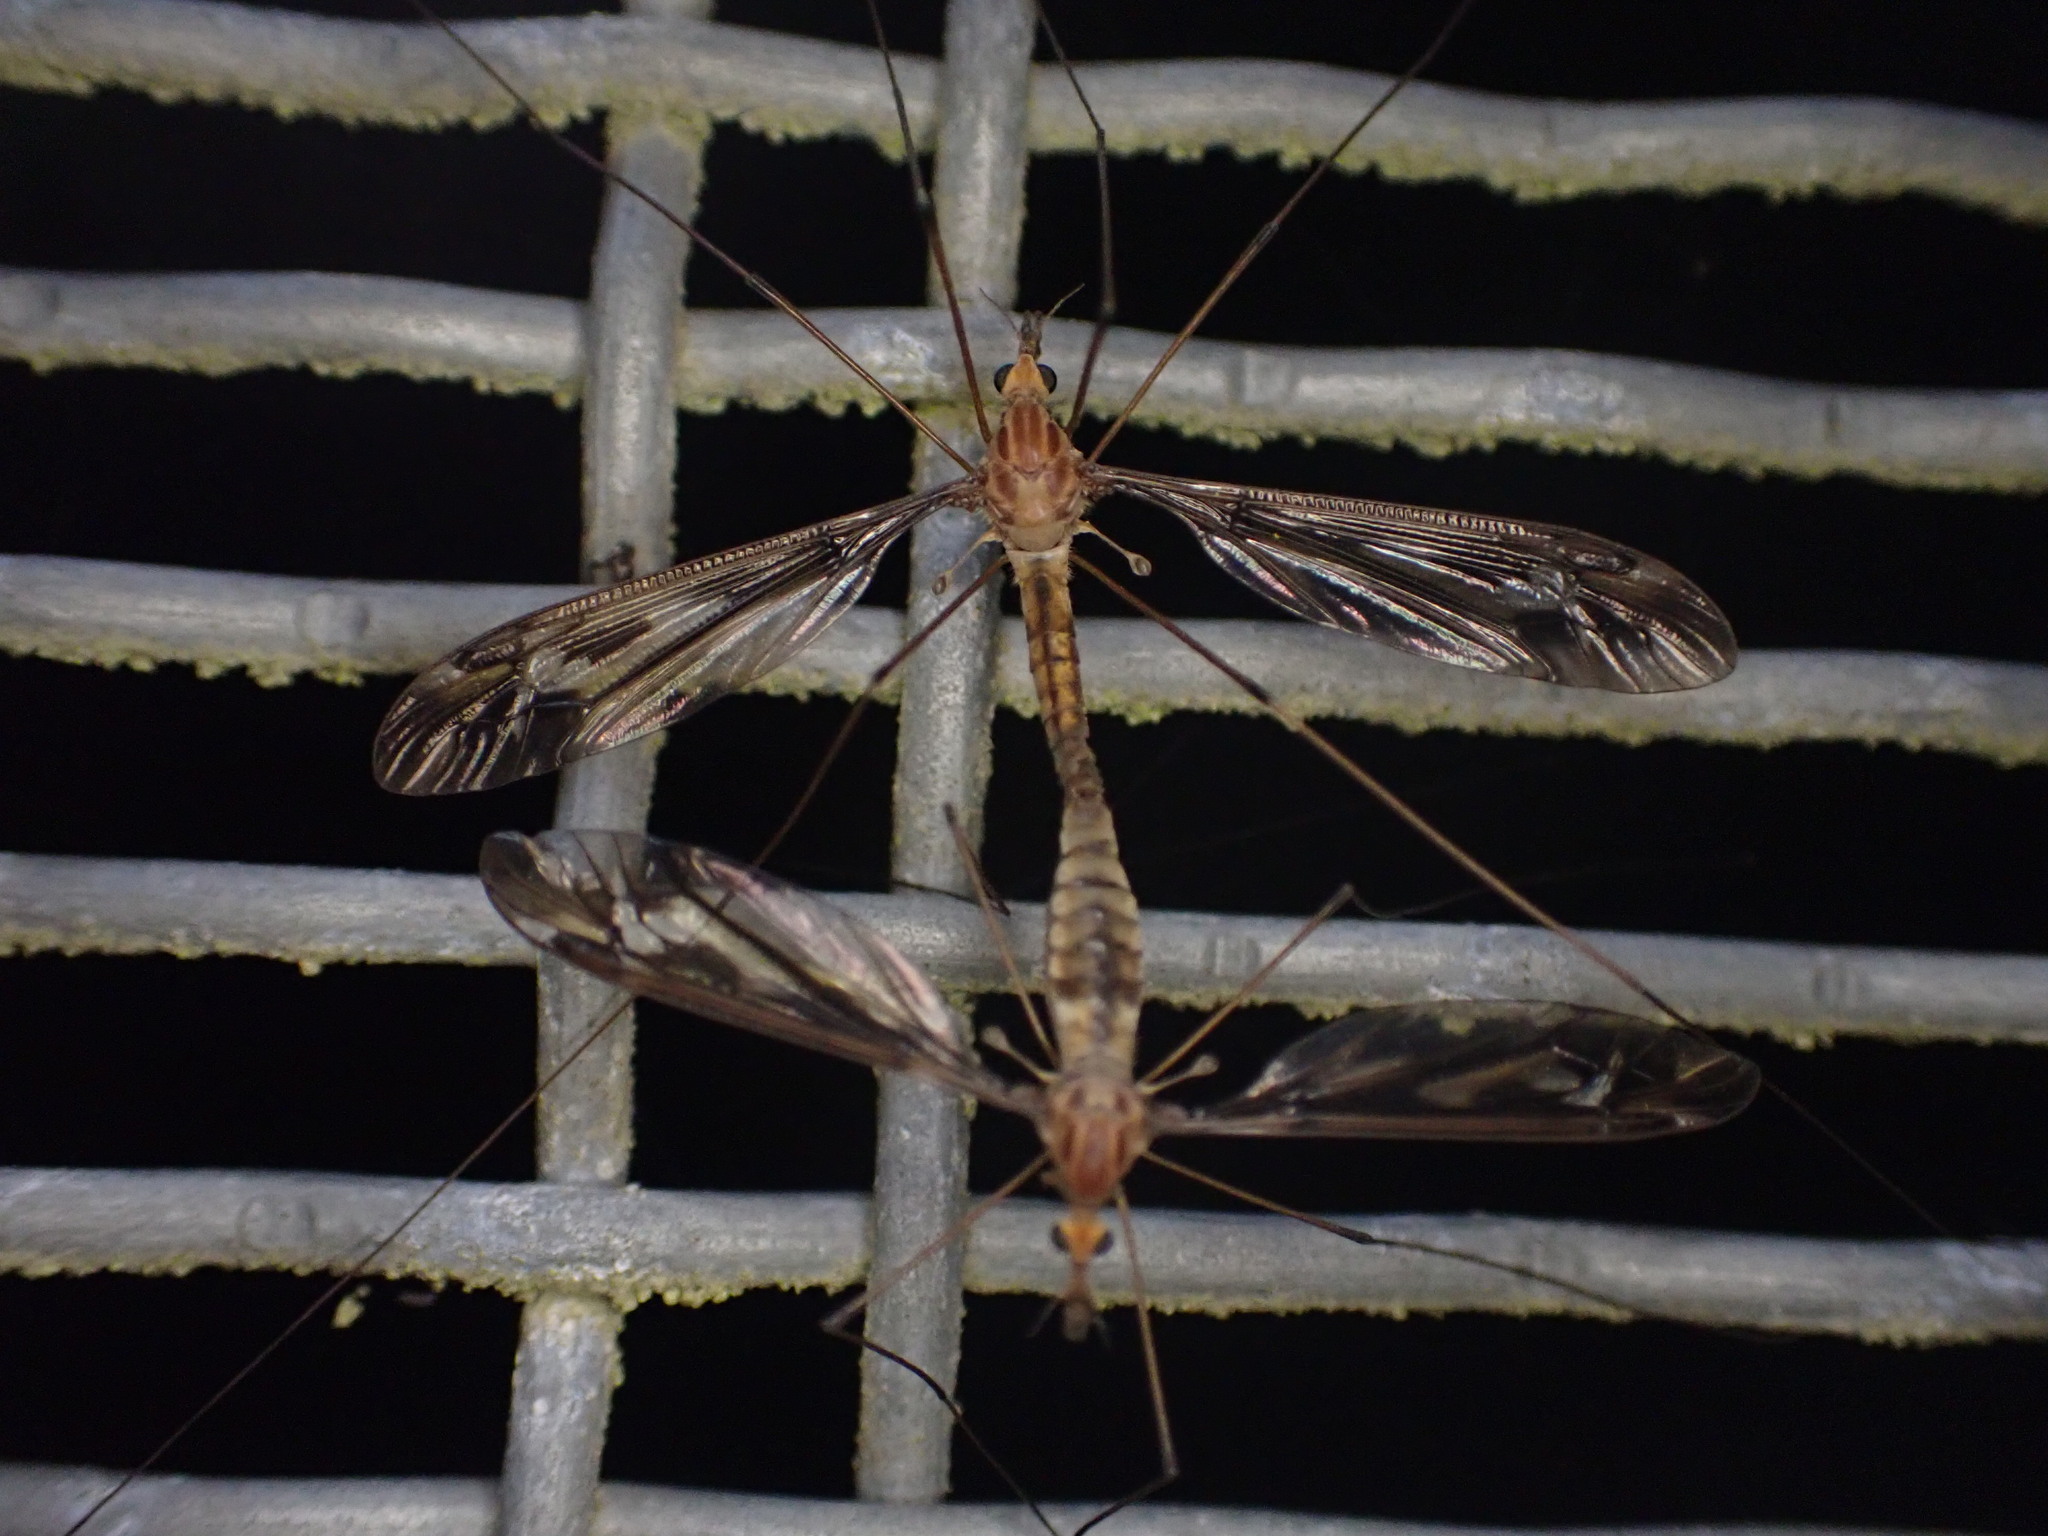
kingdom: Animalia
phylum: Arthropoda
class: Insecta
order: Diptera
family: Tipulidae
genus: Leptotarsus
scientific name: Leptotarsus huttoni
